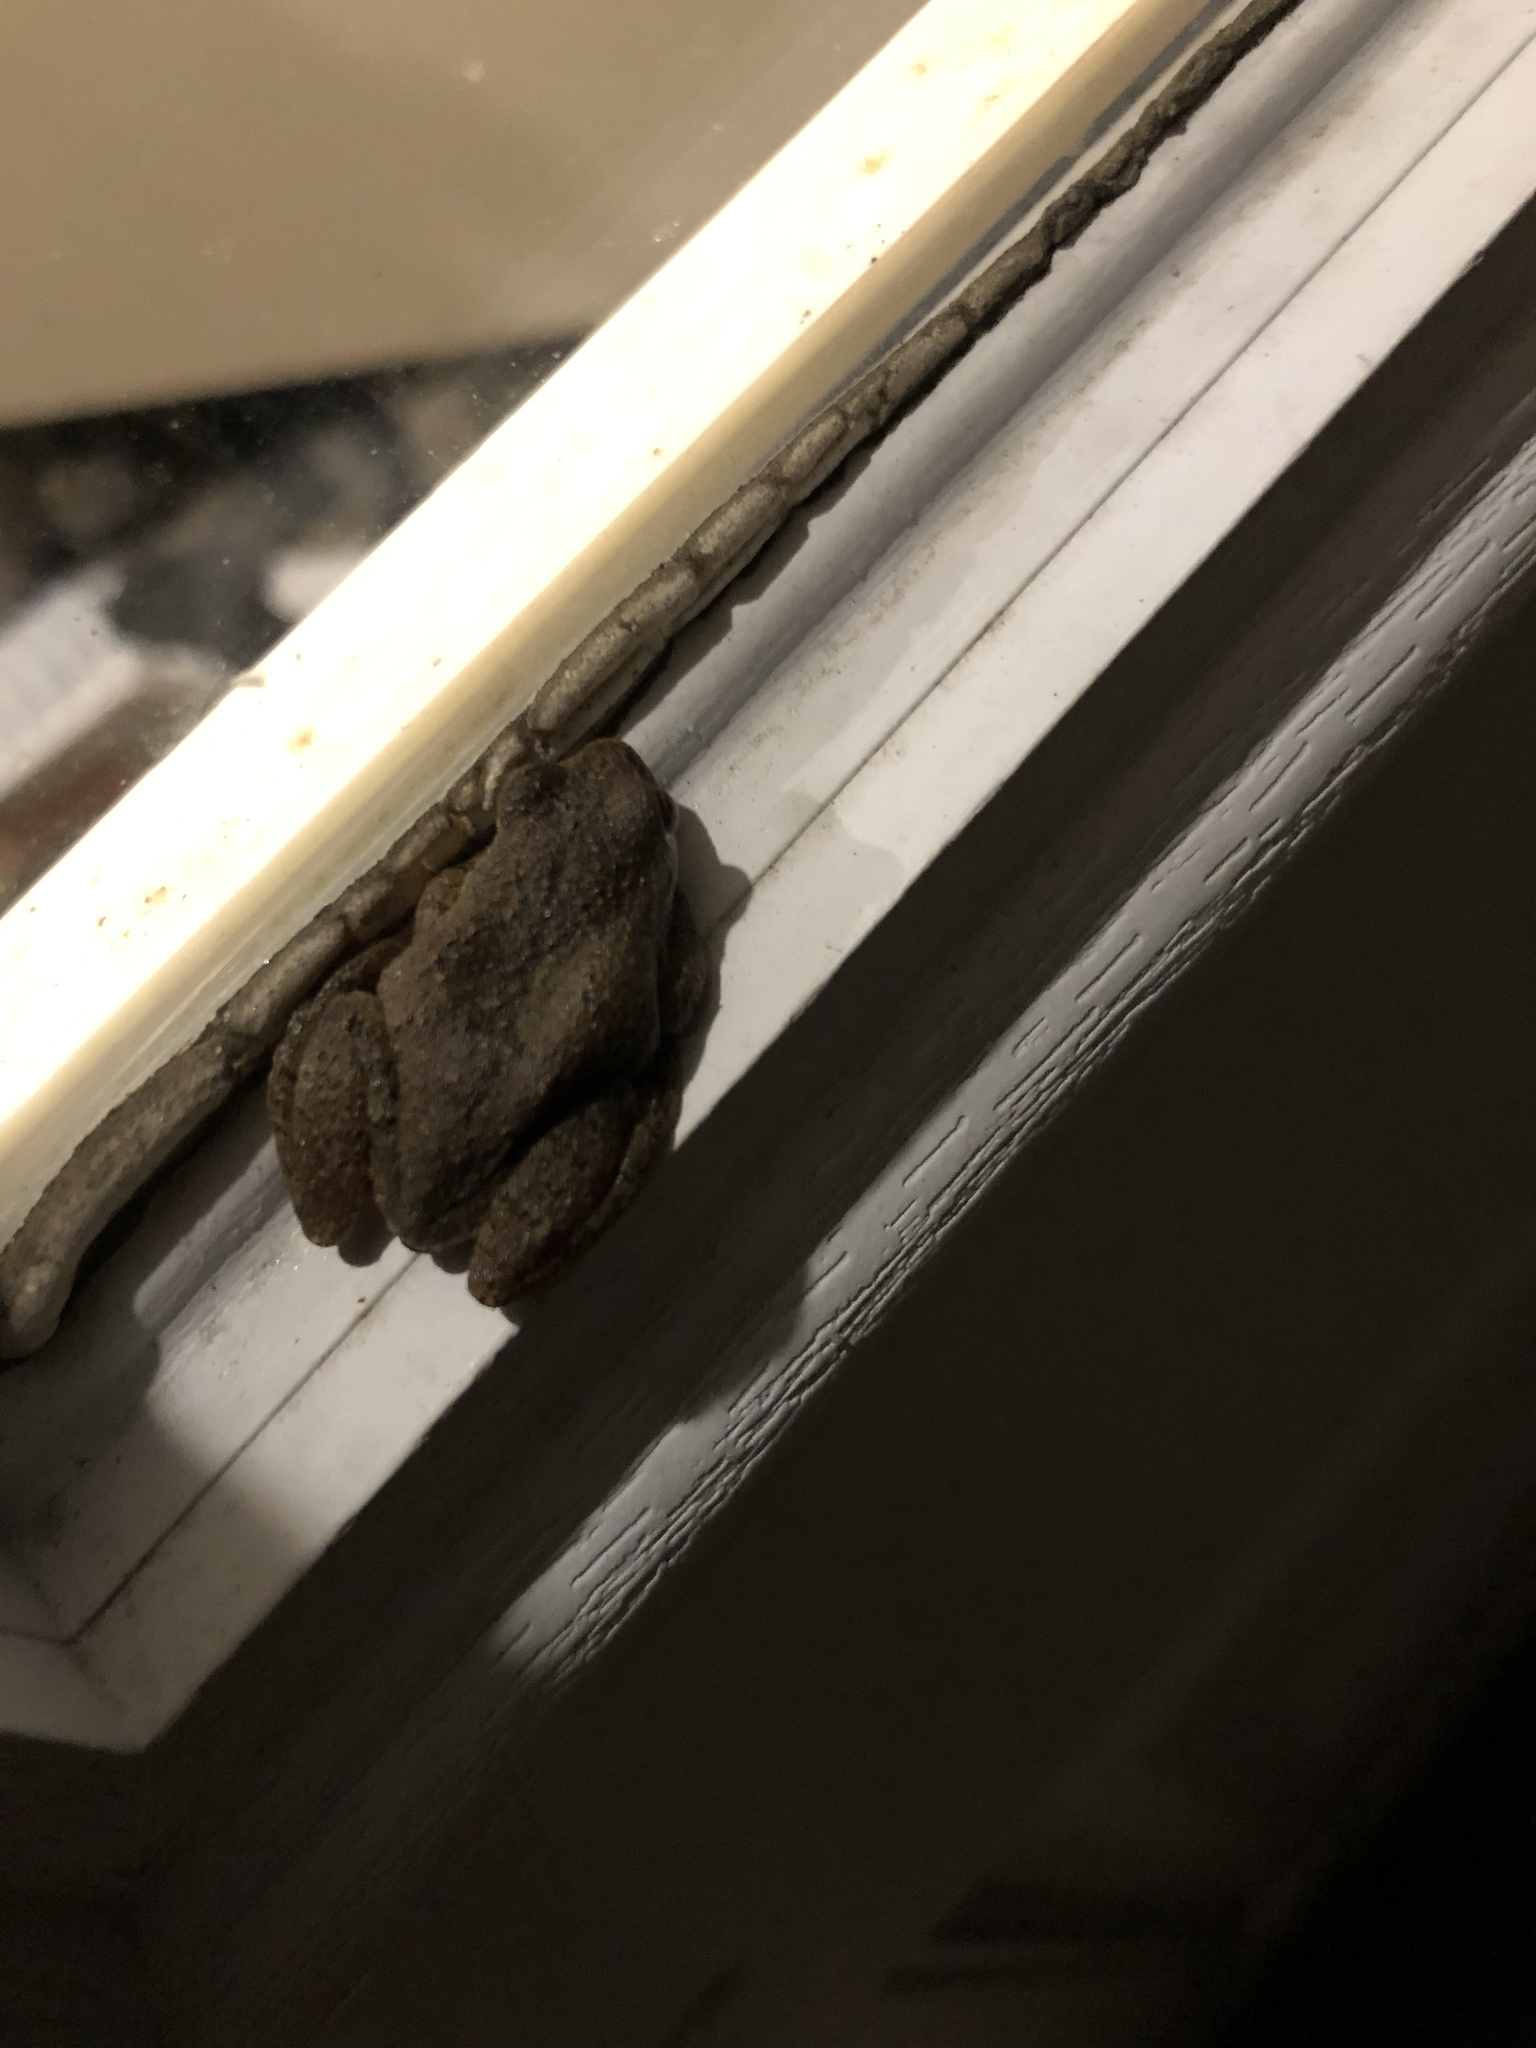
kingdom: Animalia
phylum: Chordata
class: Amphibia
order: Anura
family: Hylidae
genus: Pseudacris
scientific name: Pseudacris crucifer
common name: Spring peeper
